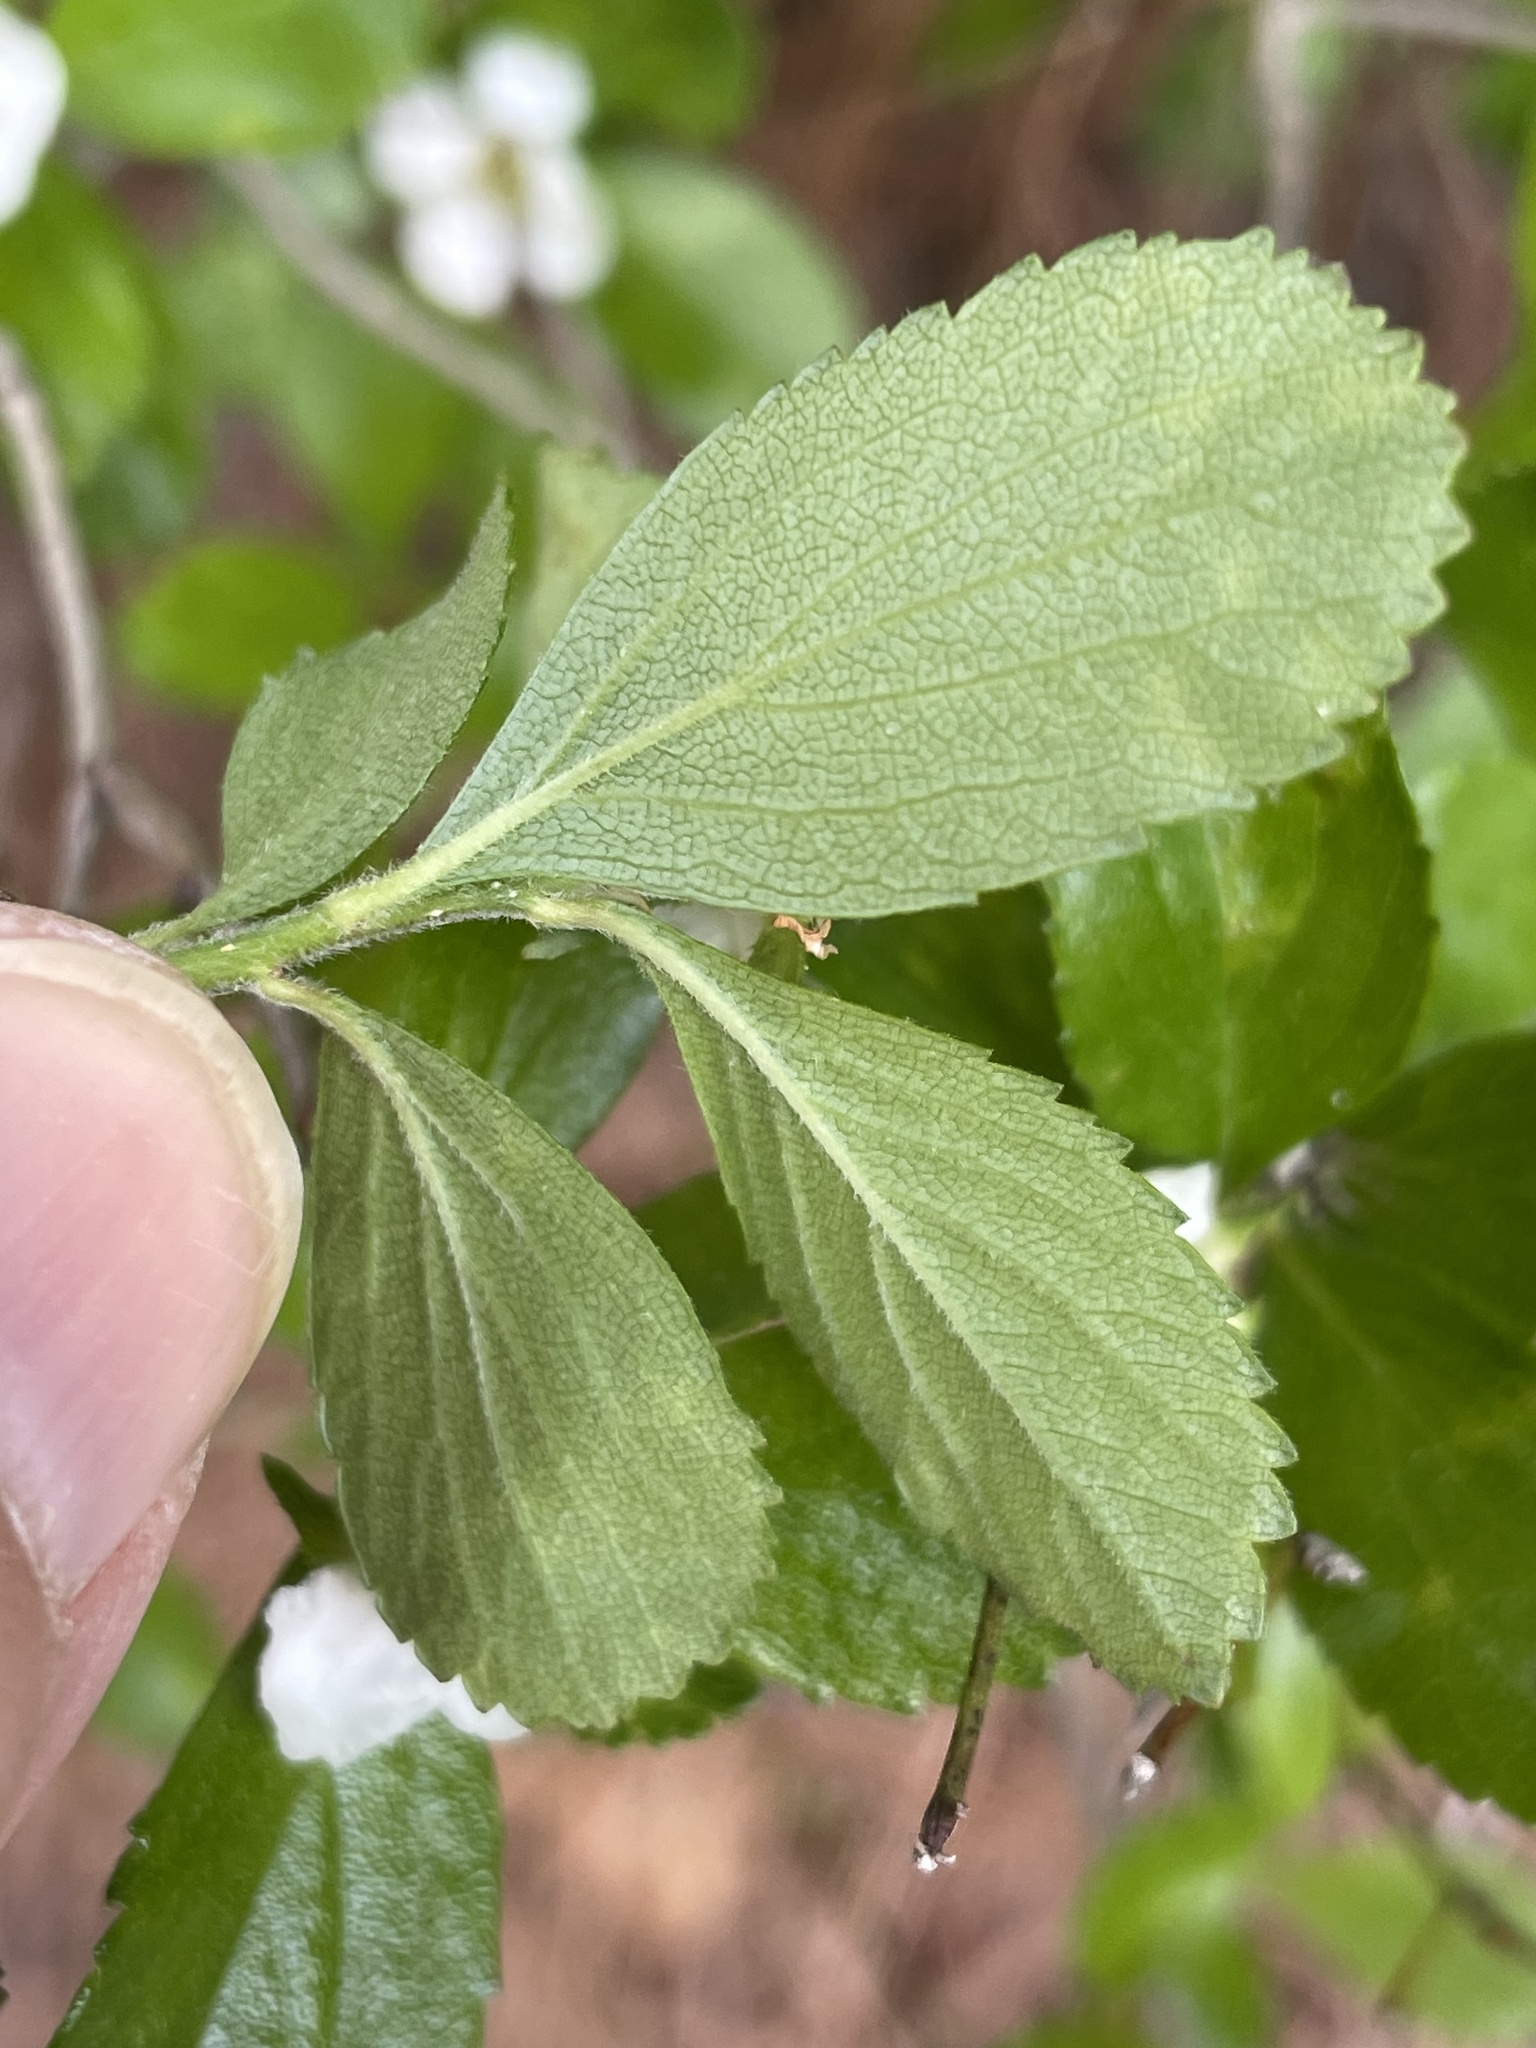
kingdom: Plantae
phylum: Tracheophyta
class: Magnoliopsida
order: Rosales
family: Rosaceae
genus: Crataegus
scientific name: Crataegus uniflora
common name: One-flower hawthorn
